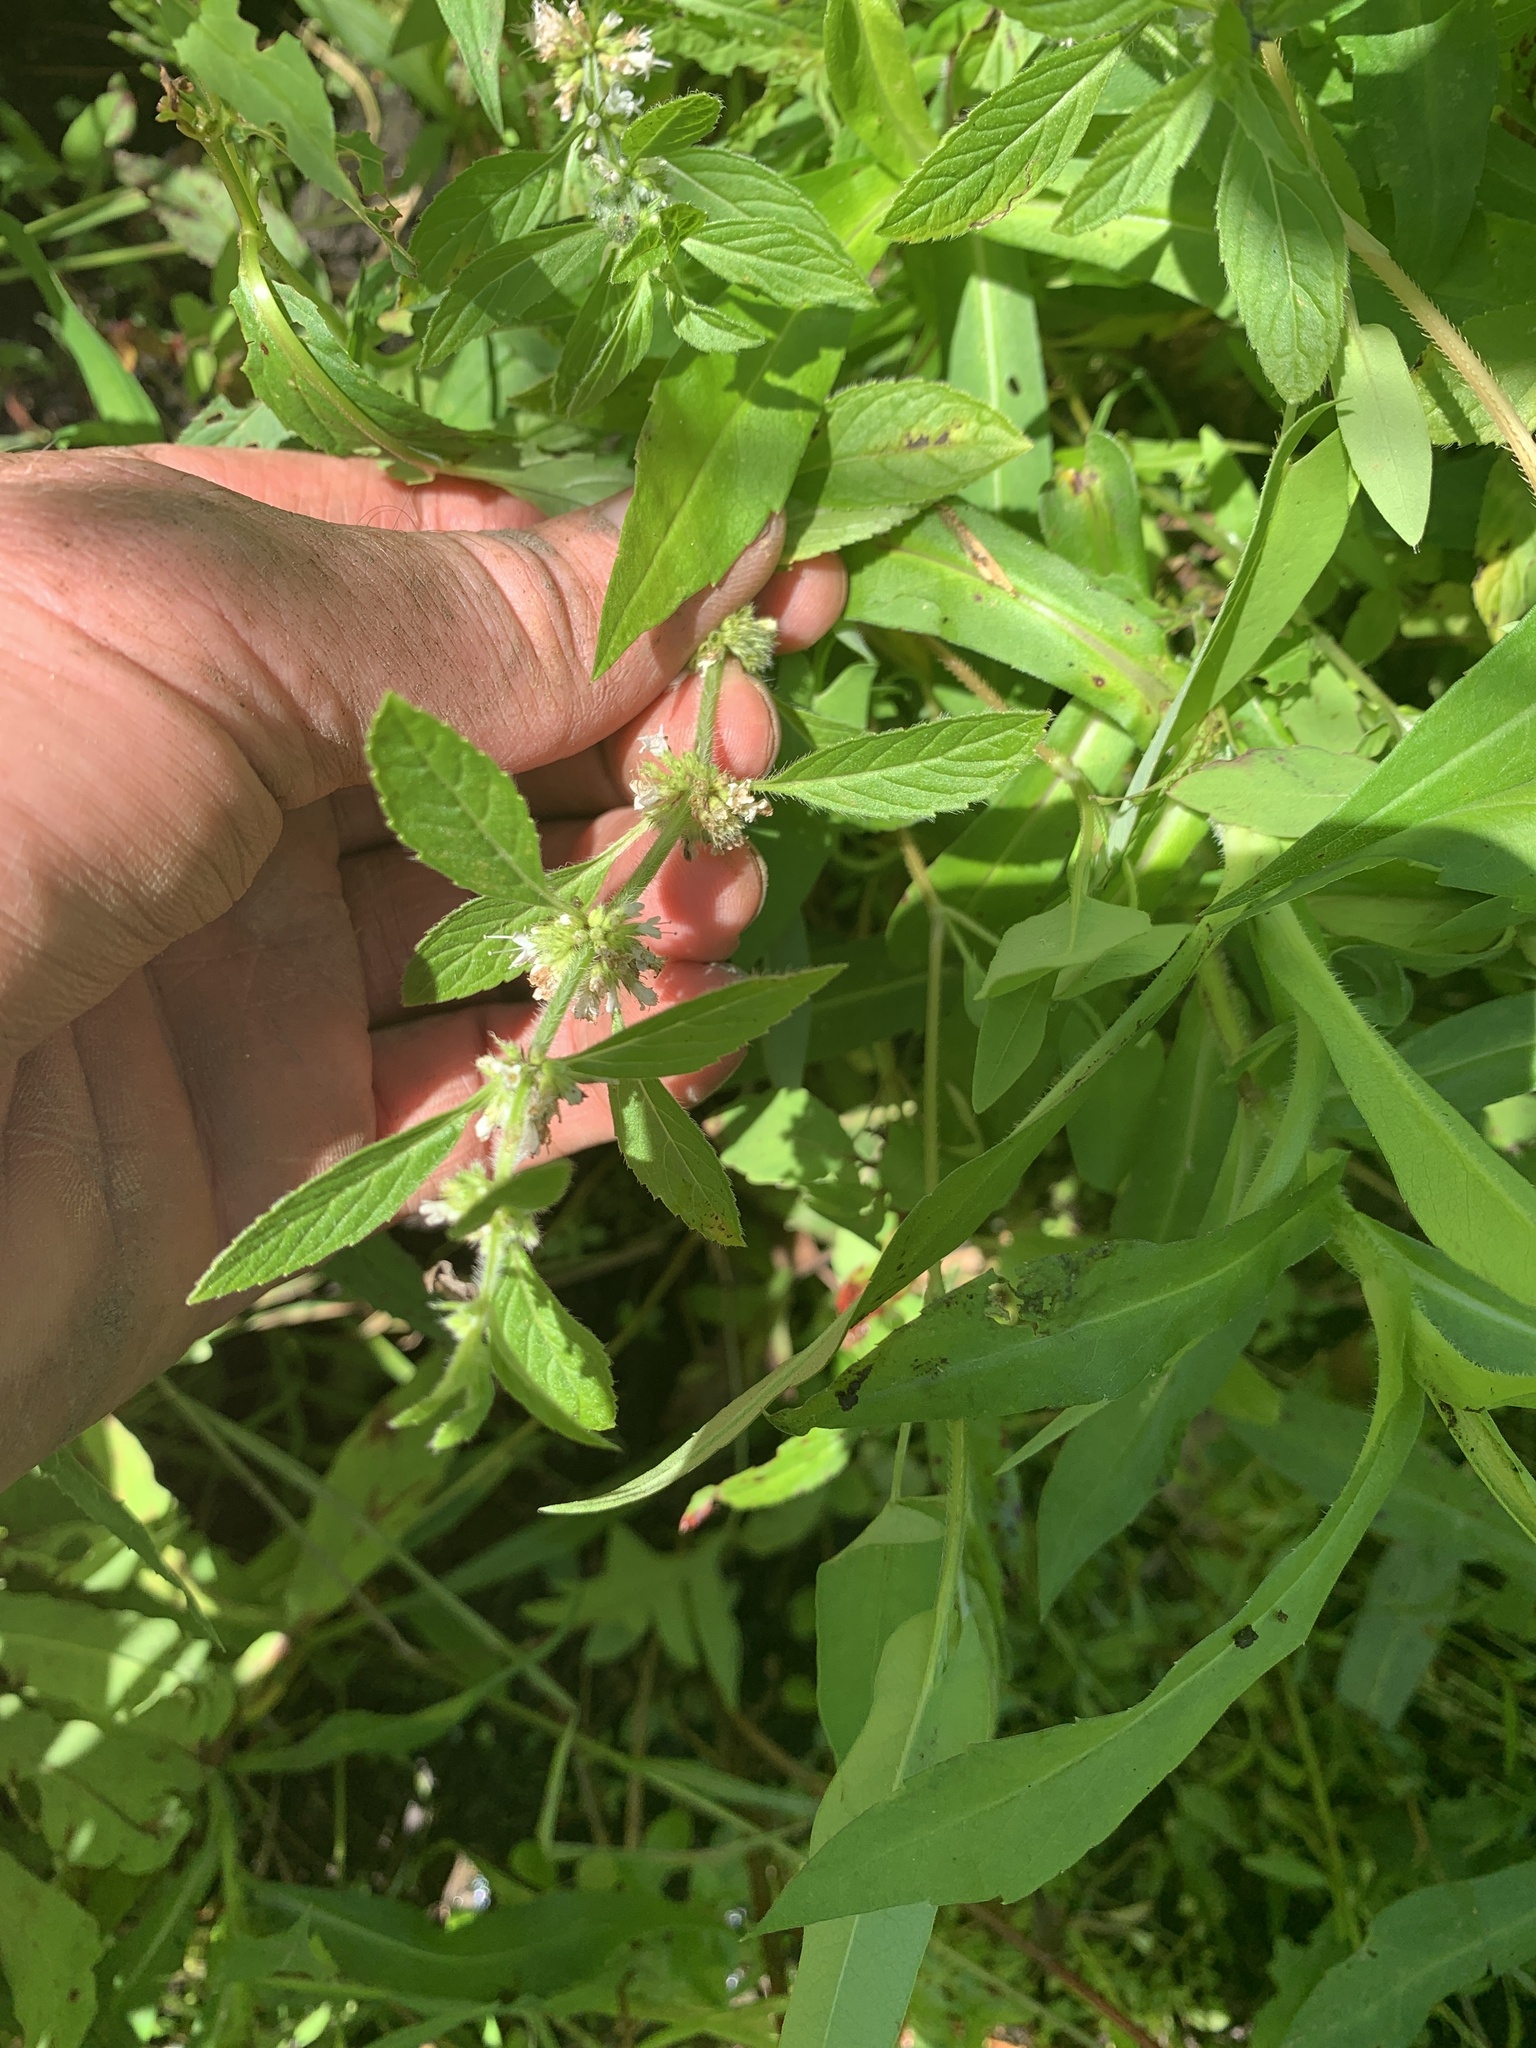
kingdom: Plantae
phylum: Tracheophyta
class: Magnoliopsida
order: Lamiales
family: Lamiaceae
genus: Mentha
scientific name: Mentha canadensis
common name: American corn mint
